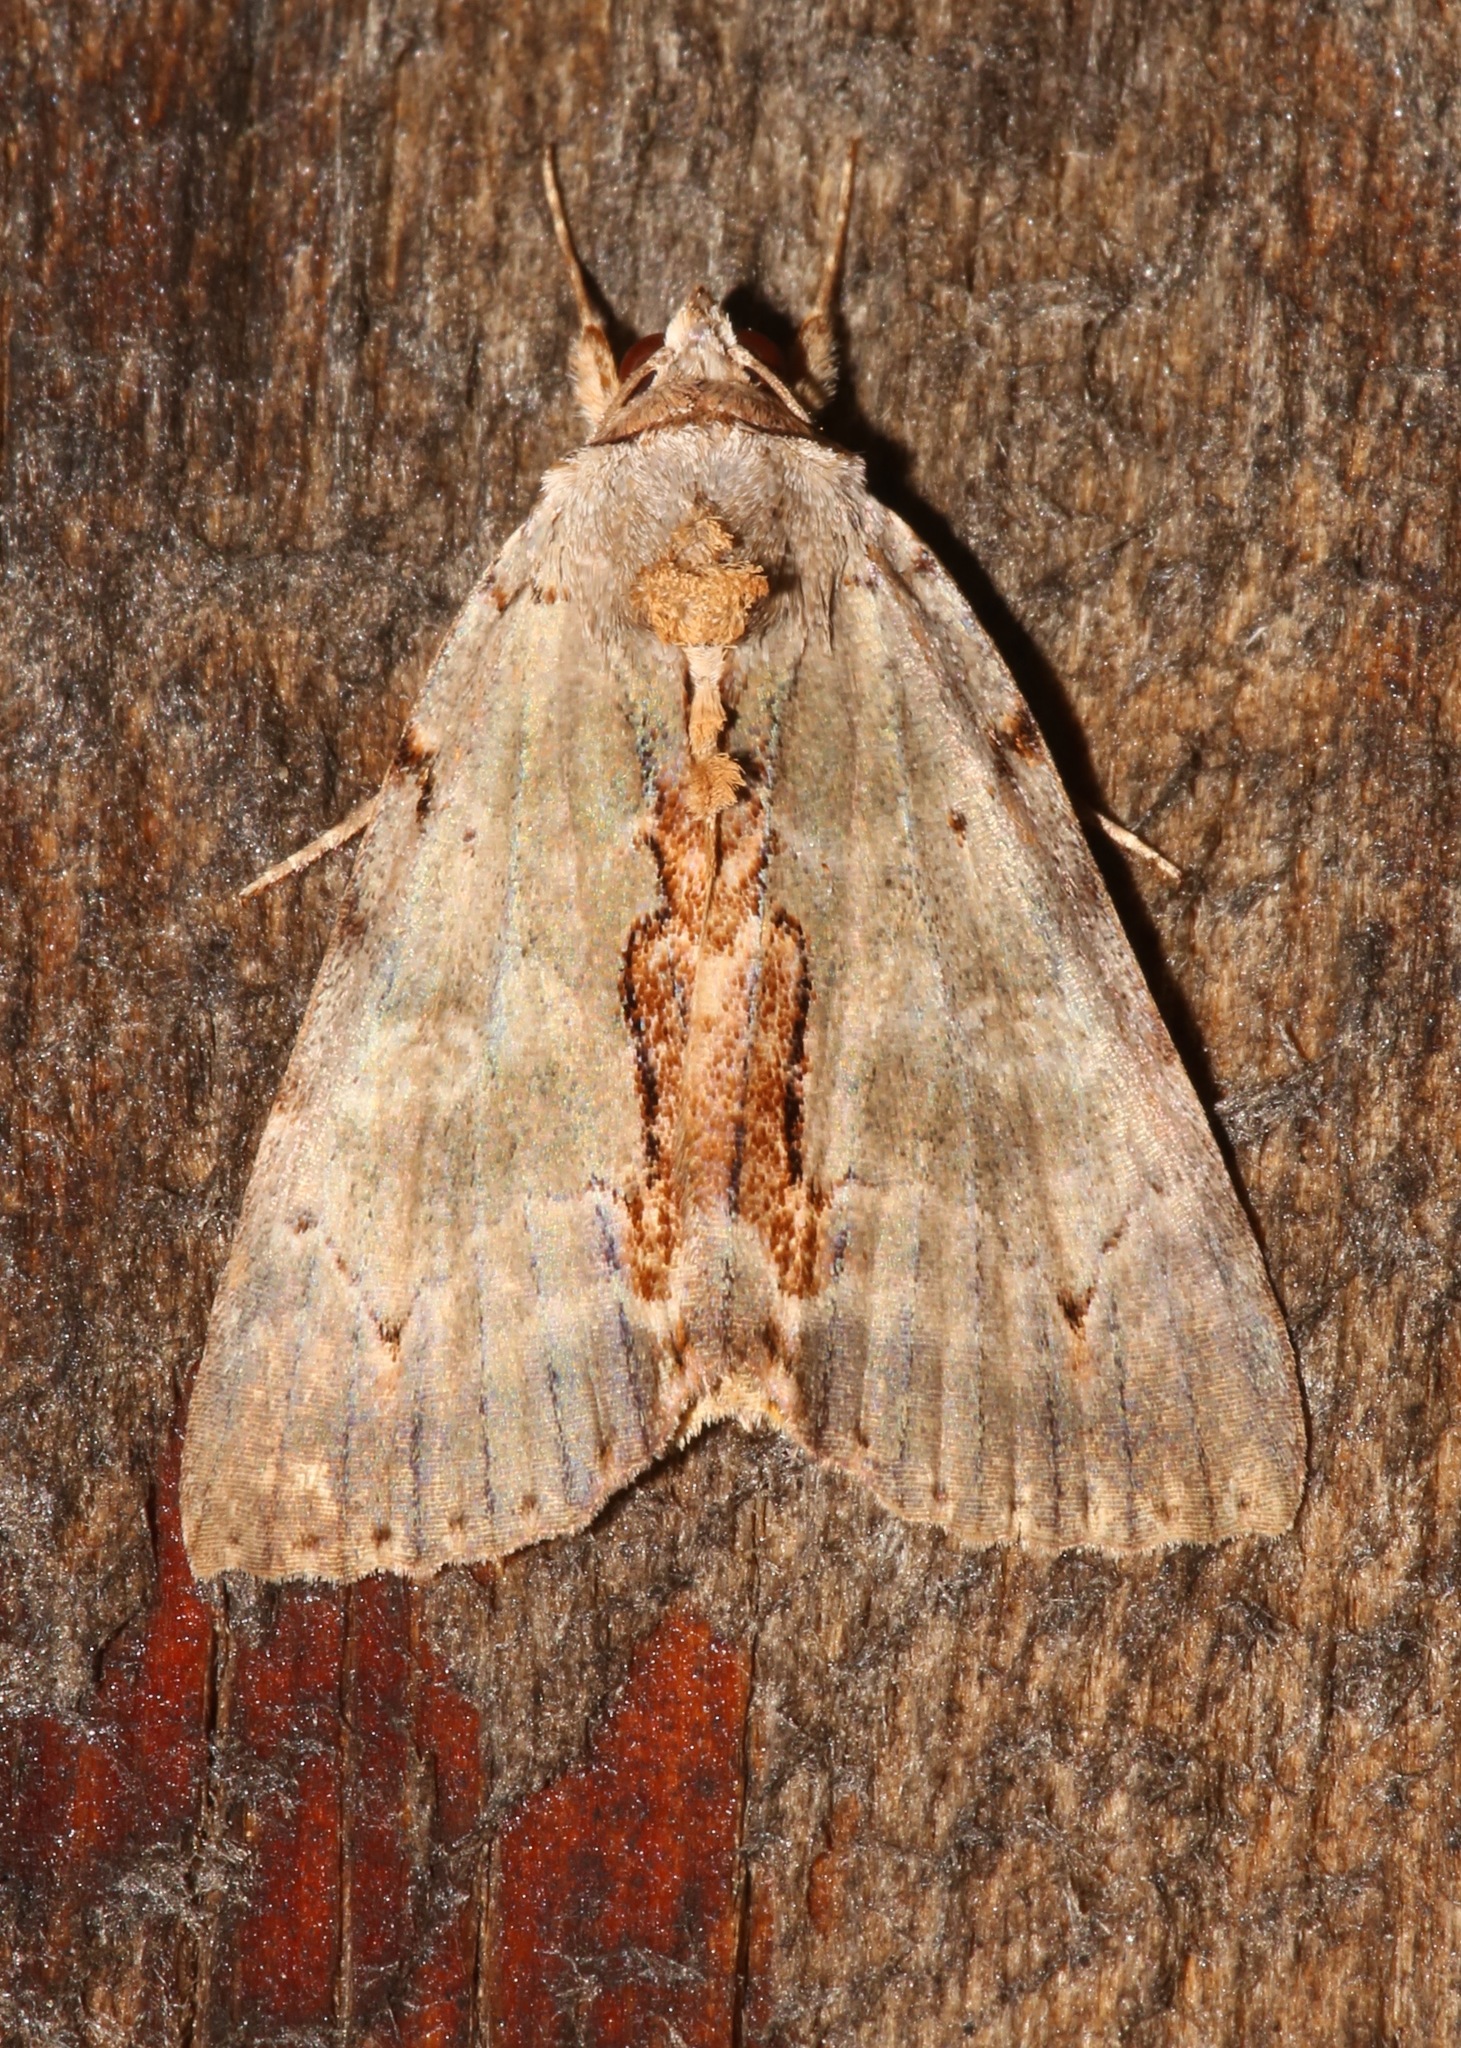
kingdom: Animalia
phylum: Arthropoda
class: Insecta
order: Lepidoptera
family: Erebidae
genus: Catocala
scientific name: Catocala grynea
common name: Woody underwing
